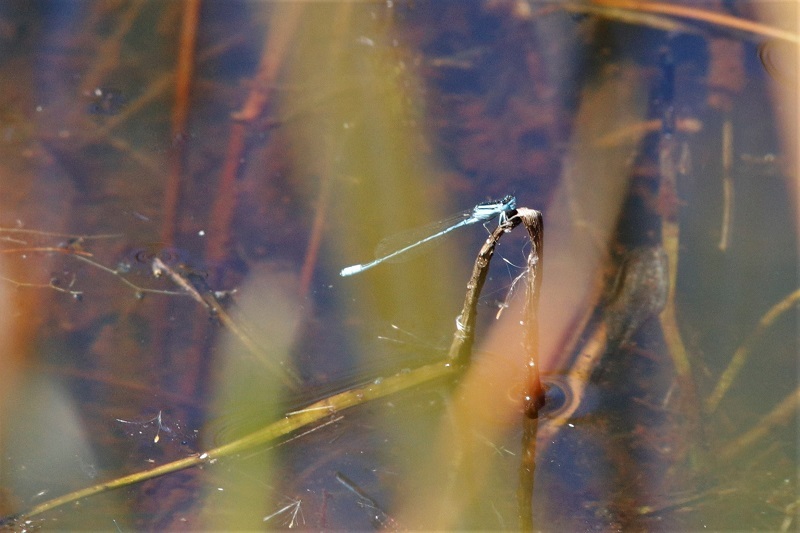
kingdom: Animalia
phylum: Arthropoda
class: Insecta
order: Odonata
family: Coenagrionidae
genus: Africallagma
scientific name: Africallagma glaucum
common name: Swamp bluet
